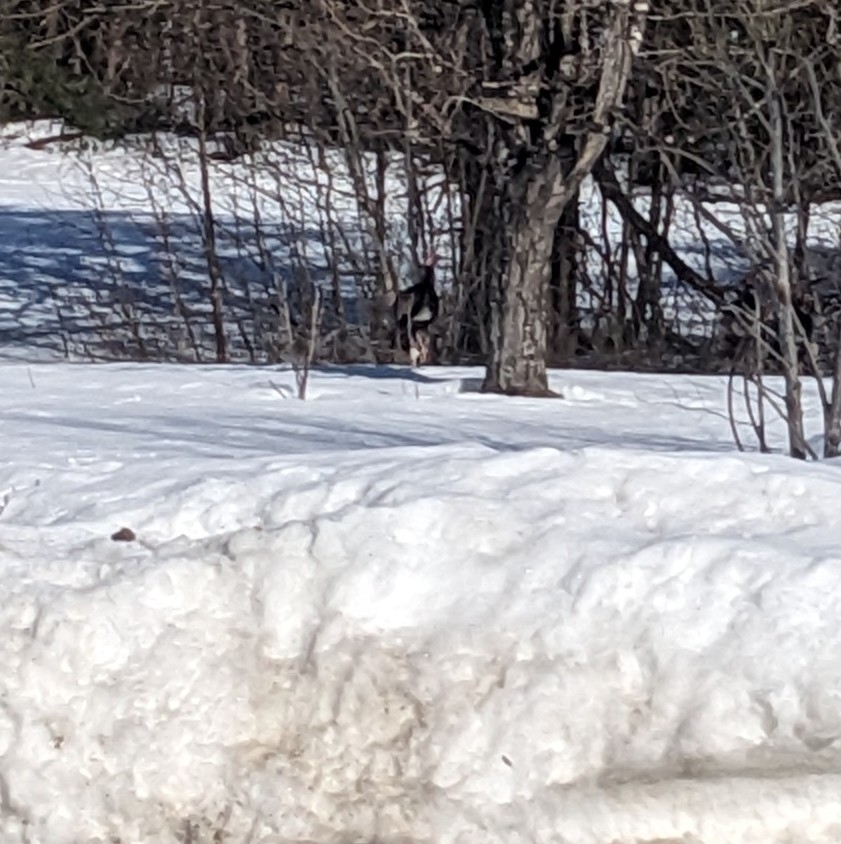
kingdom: Animalia
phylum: Chordata
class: Aves
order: Galliformes
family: Phasianidae
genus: Meleagris
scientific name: Meleagris gallopavo
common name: Wild turkey
